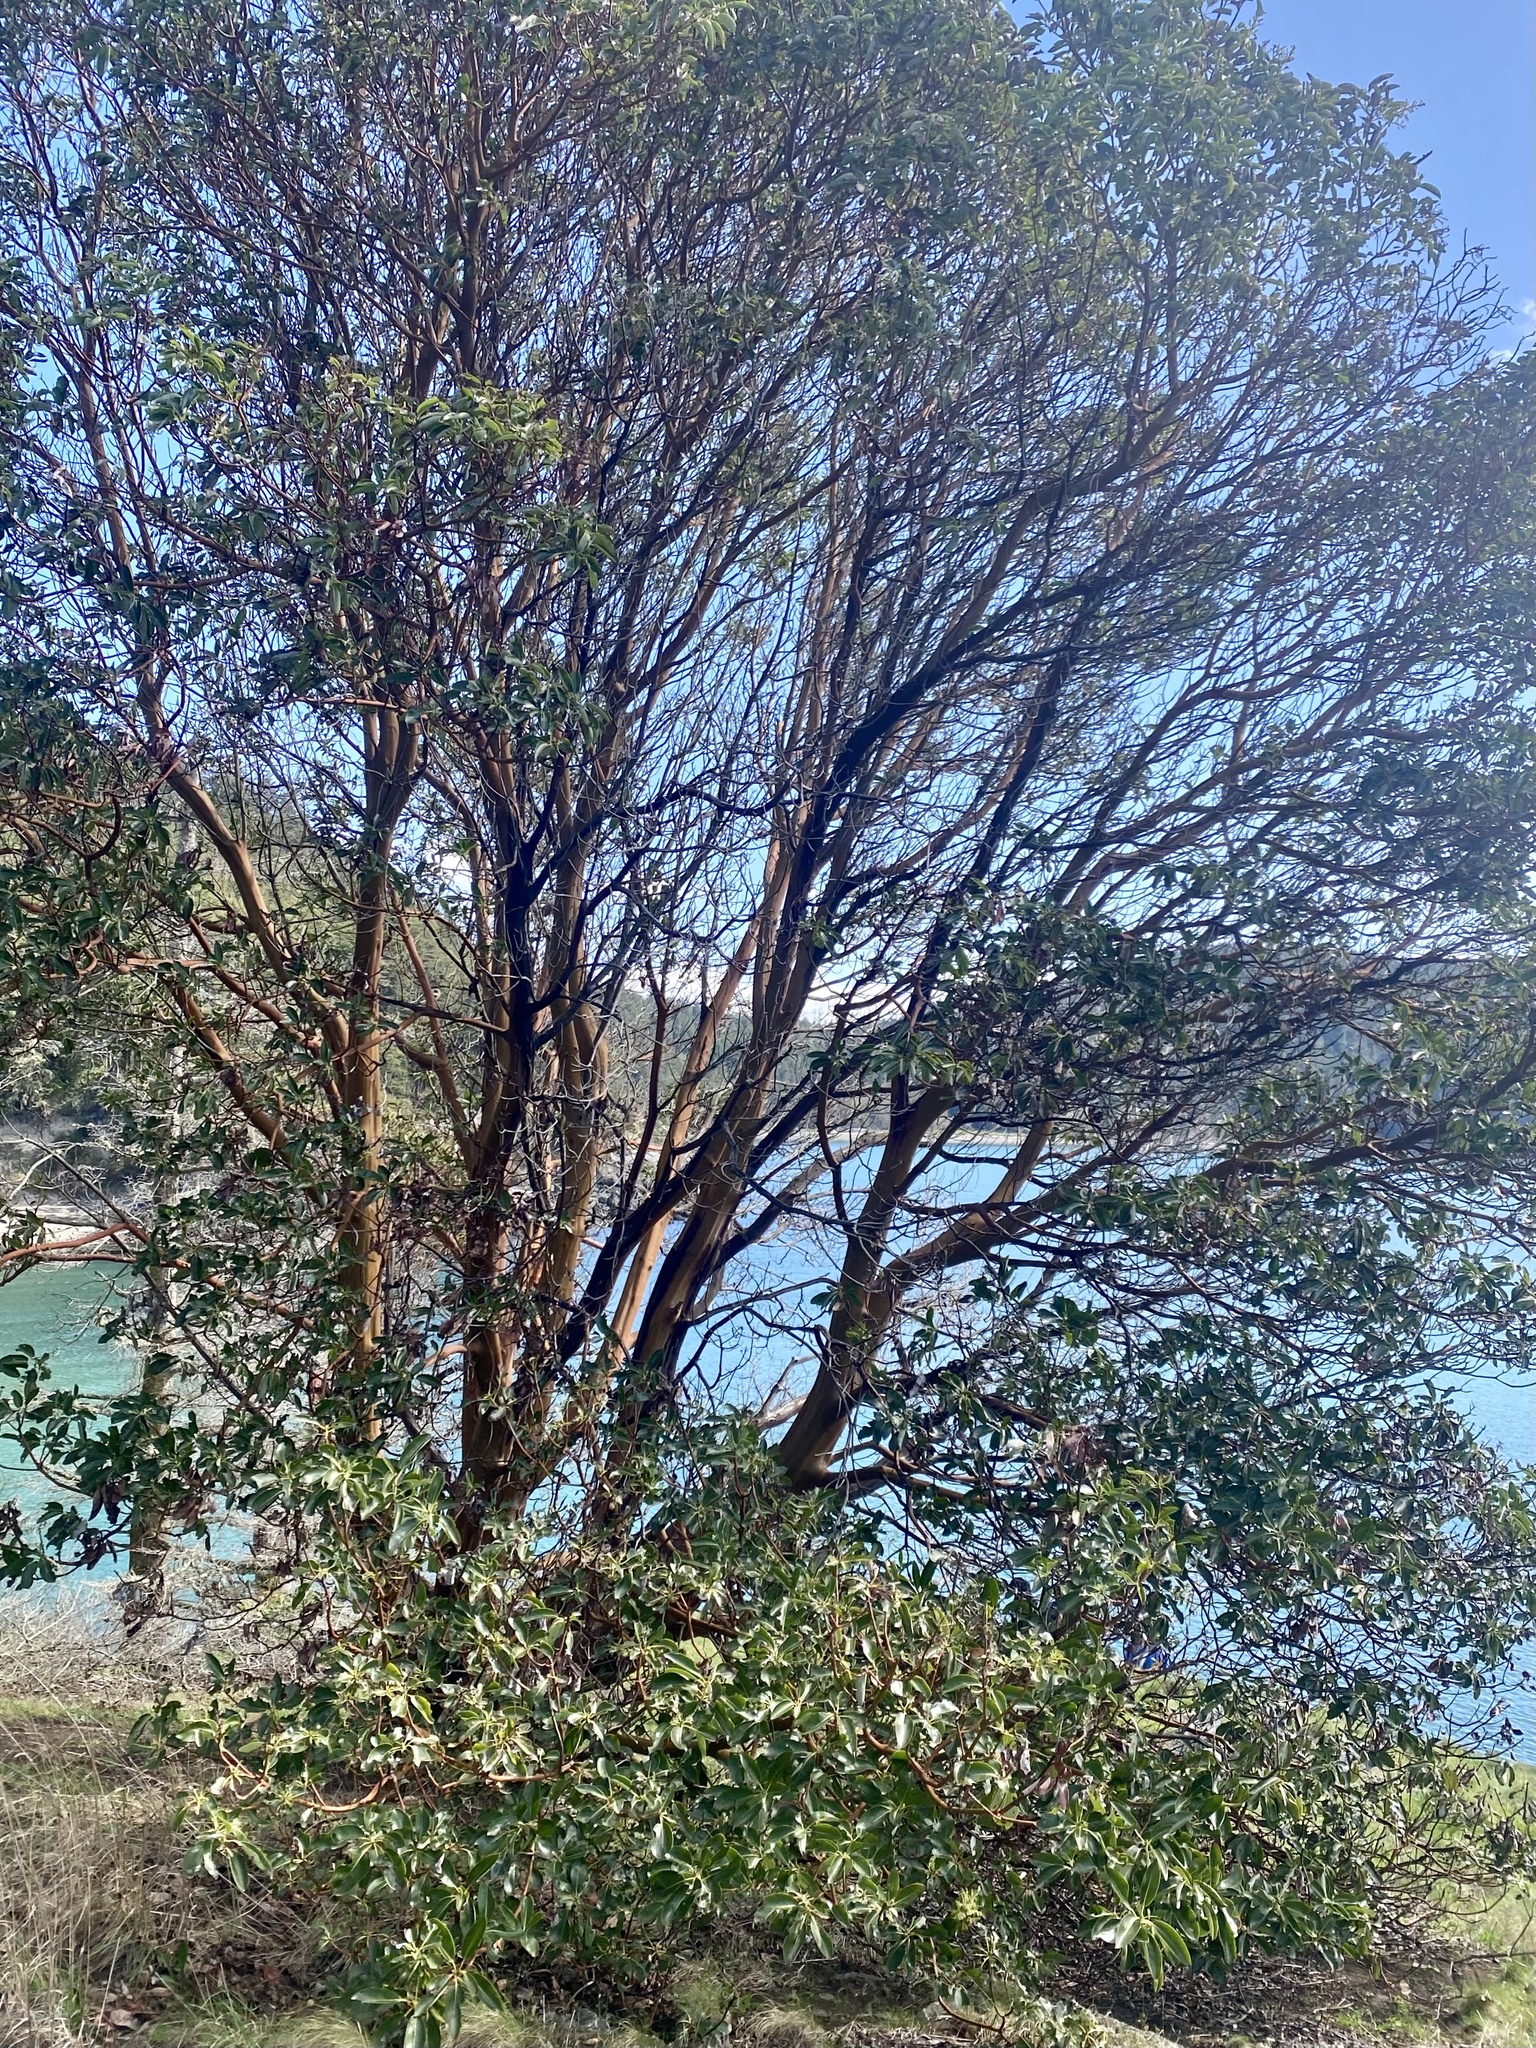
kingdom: Plantae
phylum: Tracheophyta
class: Magnoliopsida
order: Ericales
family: Ericaceae
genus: Arbutus
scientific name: Arbutus menziesii
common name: Pacific madrone
